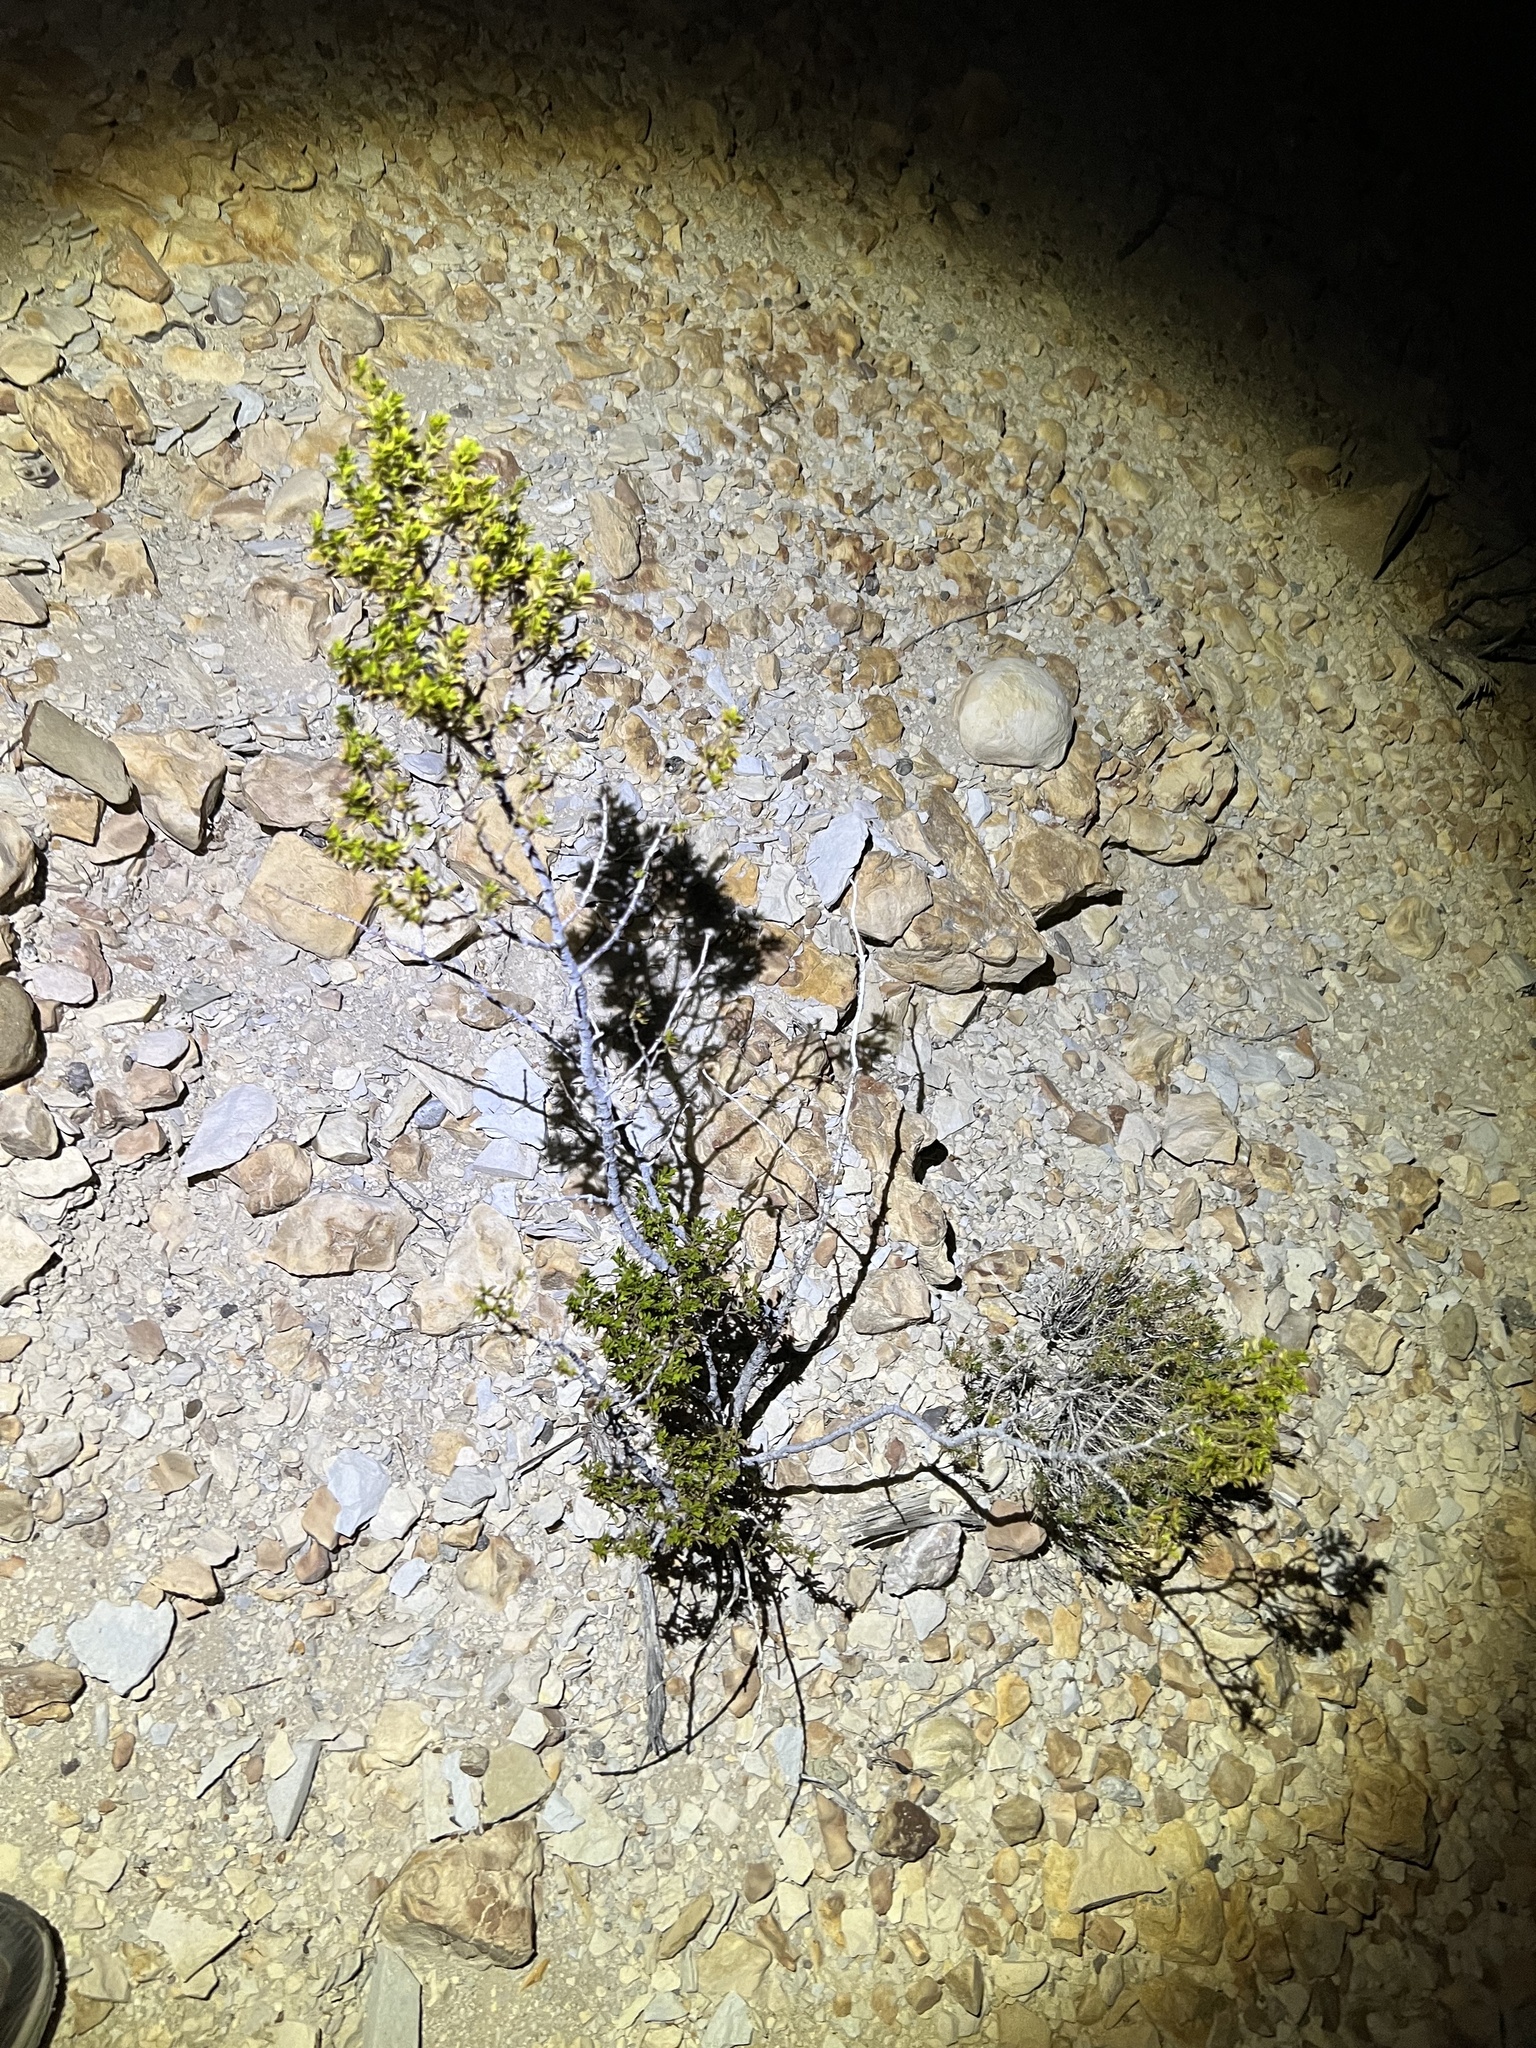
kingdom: Plantae
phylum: Tracheophyta
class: Magnoliopsida
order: Zygophyllales
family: Zygophyllaceae
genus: Larrea
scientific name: Larrea tridentata
